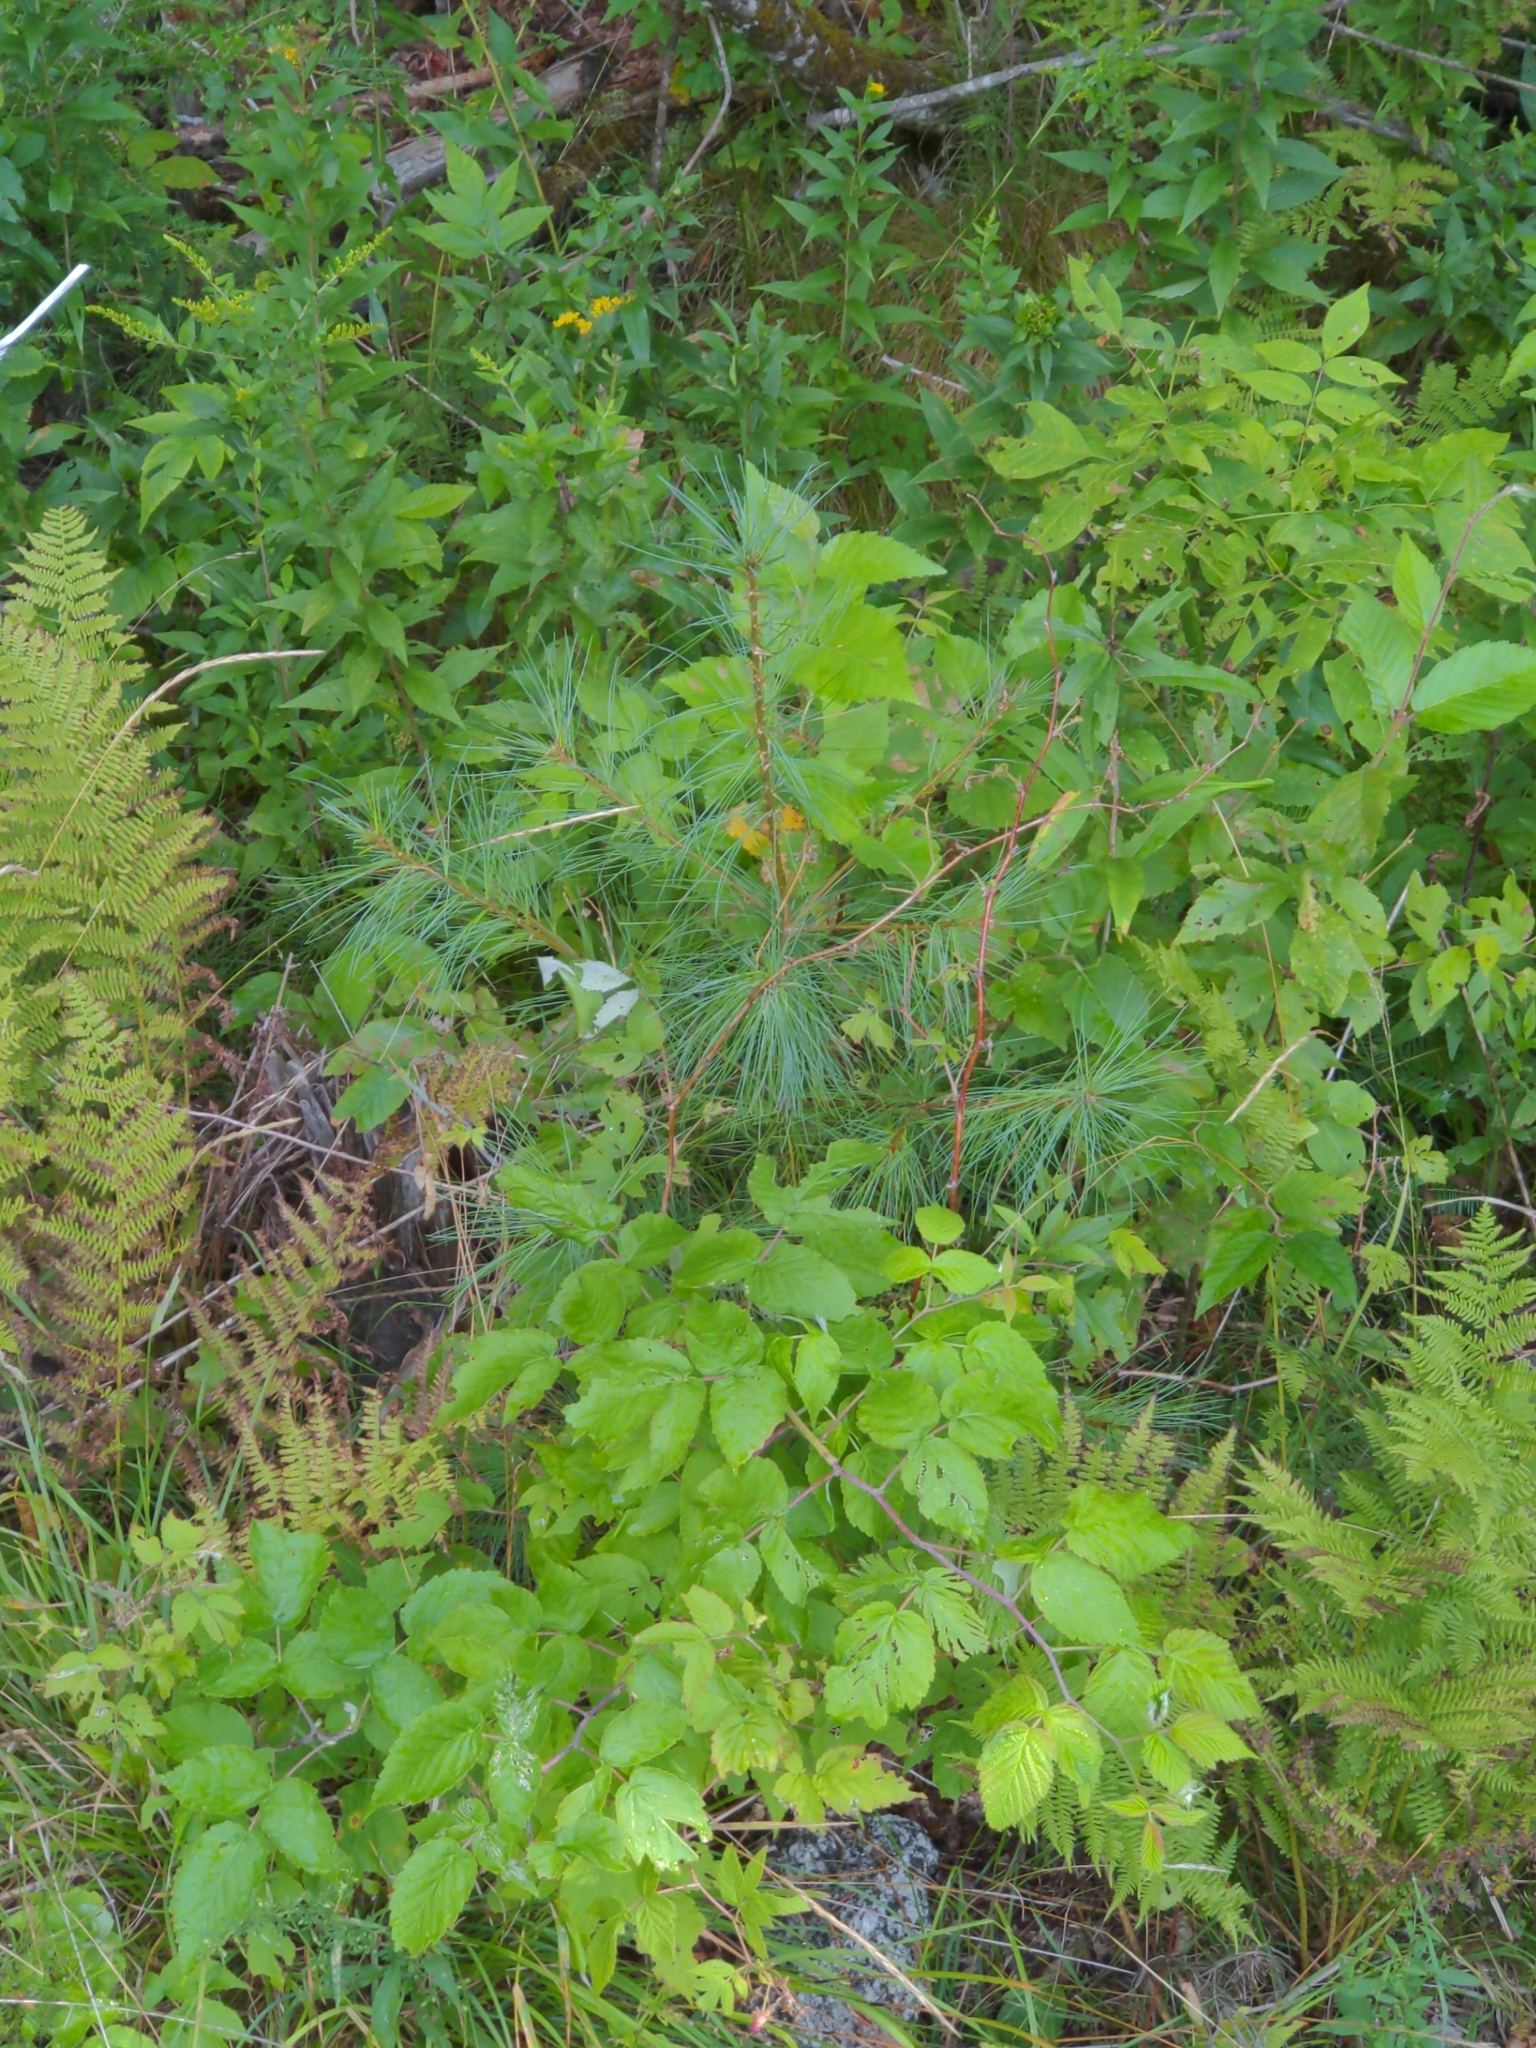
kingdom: Plantae
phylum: Tracheophyta
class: Pinopsida
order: Pinales
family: Pinaceae
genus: Pinus
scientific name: Pinus strobus
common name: Weymouth pine
